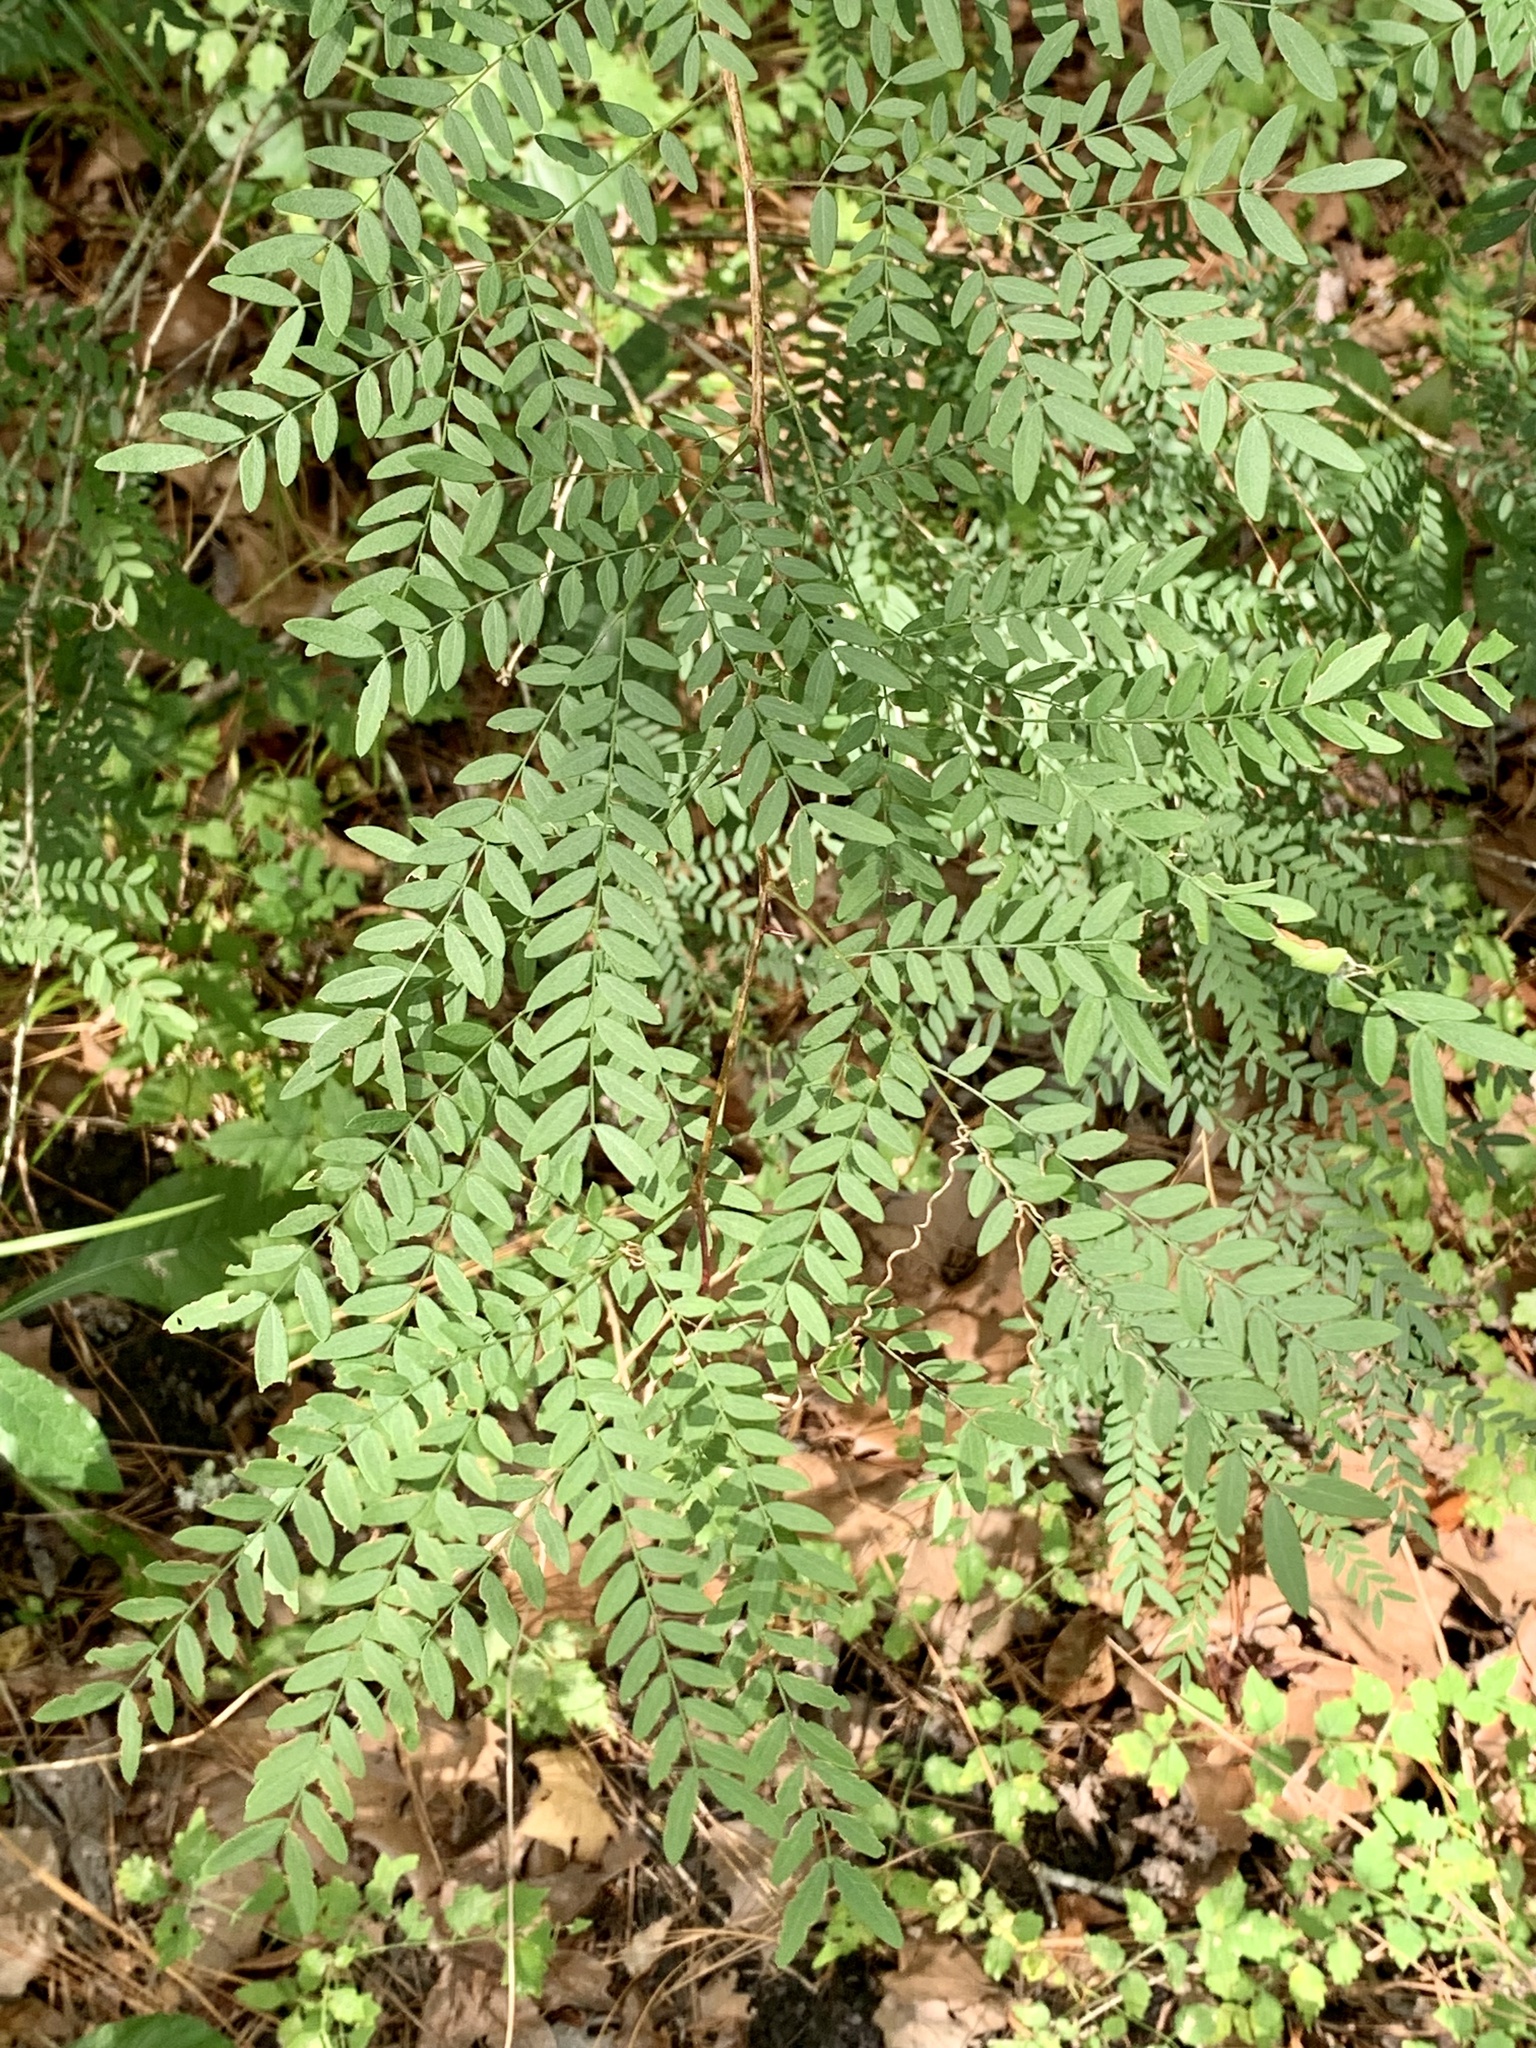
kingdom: Plantae
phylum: Tracheophyta
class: Magnoliopsida
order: Fabales
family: Fabaceae
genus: Gleditsia
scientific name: Gleditsia triacanthos
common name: Common honeylocust
